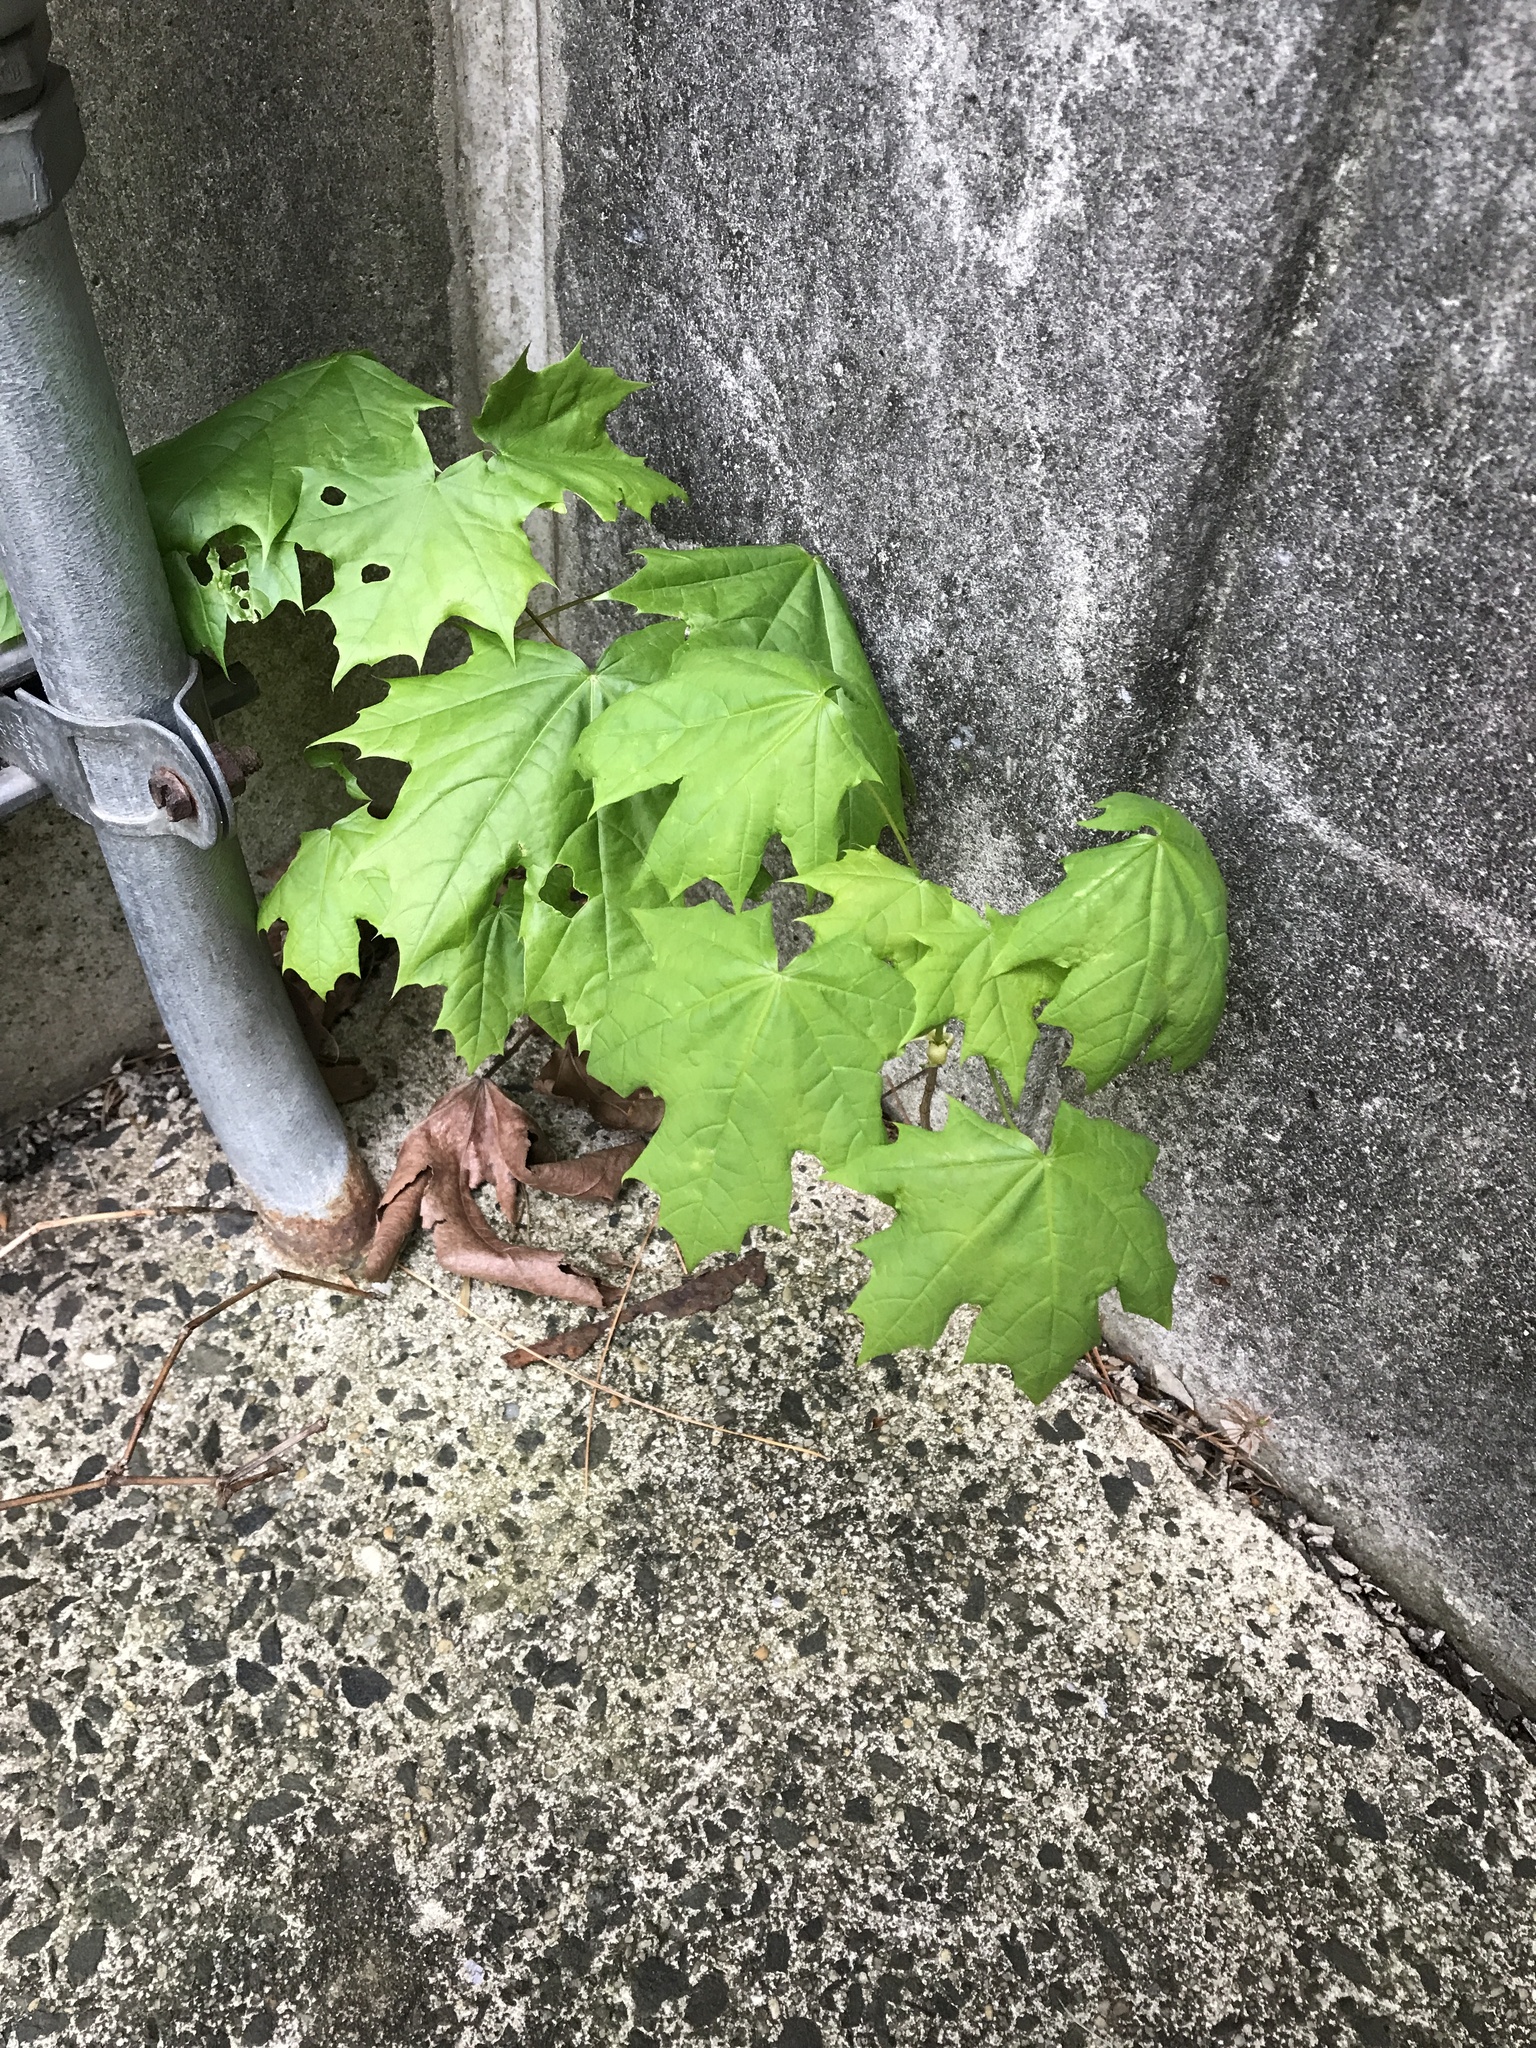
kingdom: Plantae
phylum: Tracheophyta
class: Magnoliopsida
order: Sapindales
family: Sapindaceae
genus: Acer
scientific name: Acer platanoides
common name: Norway maple
